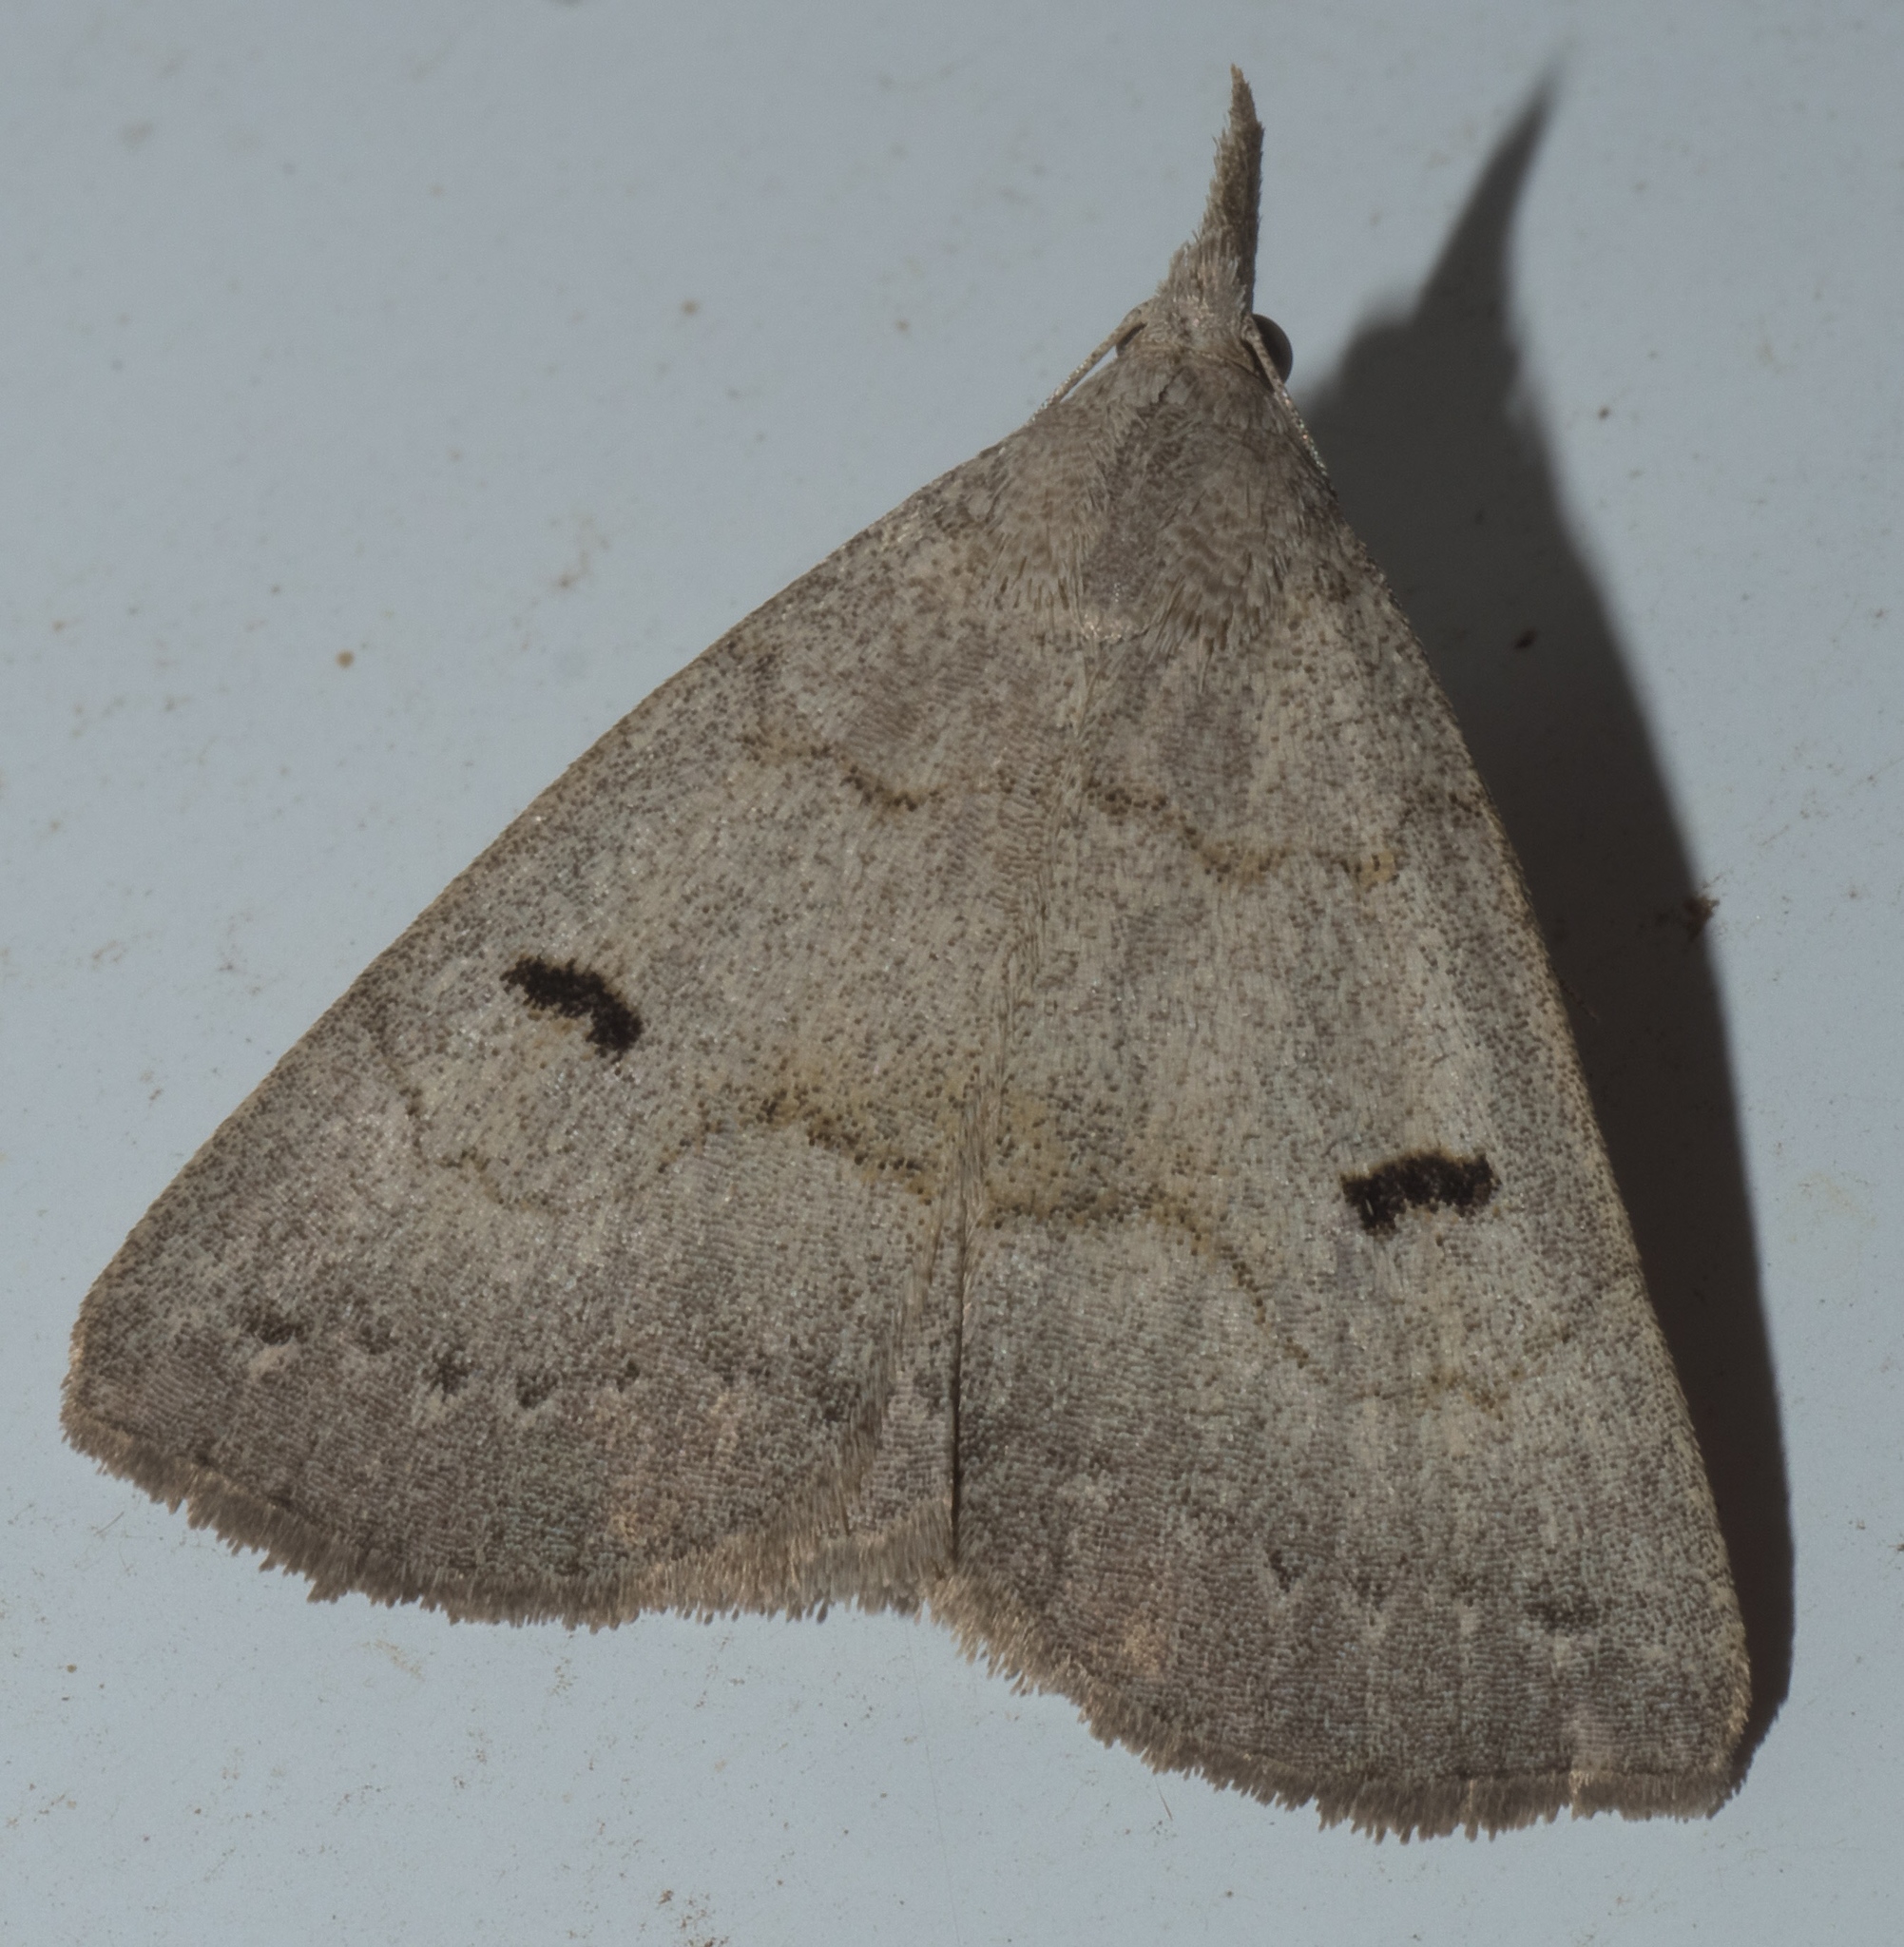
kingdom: Animalia
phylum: Arthropoda
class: Insecta
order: Lepidoptera
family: Erebidae
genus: Macrochilo
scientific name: Macrochilo morbidalis
